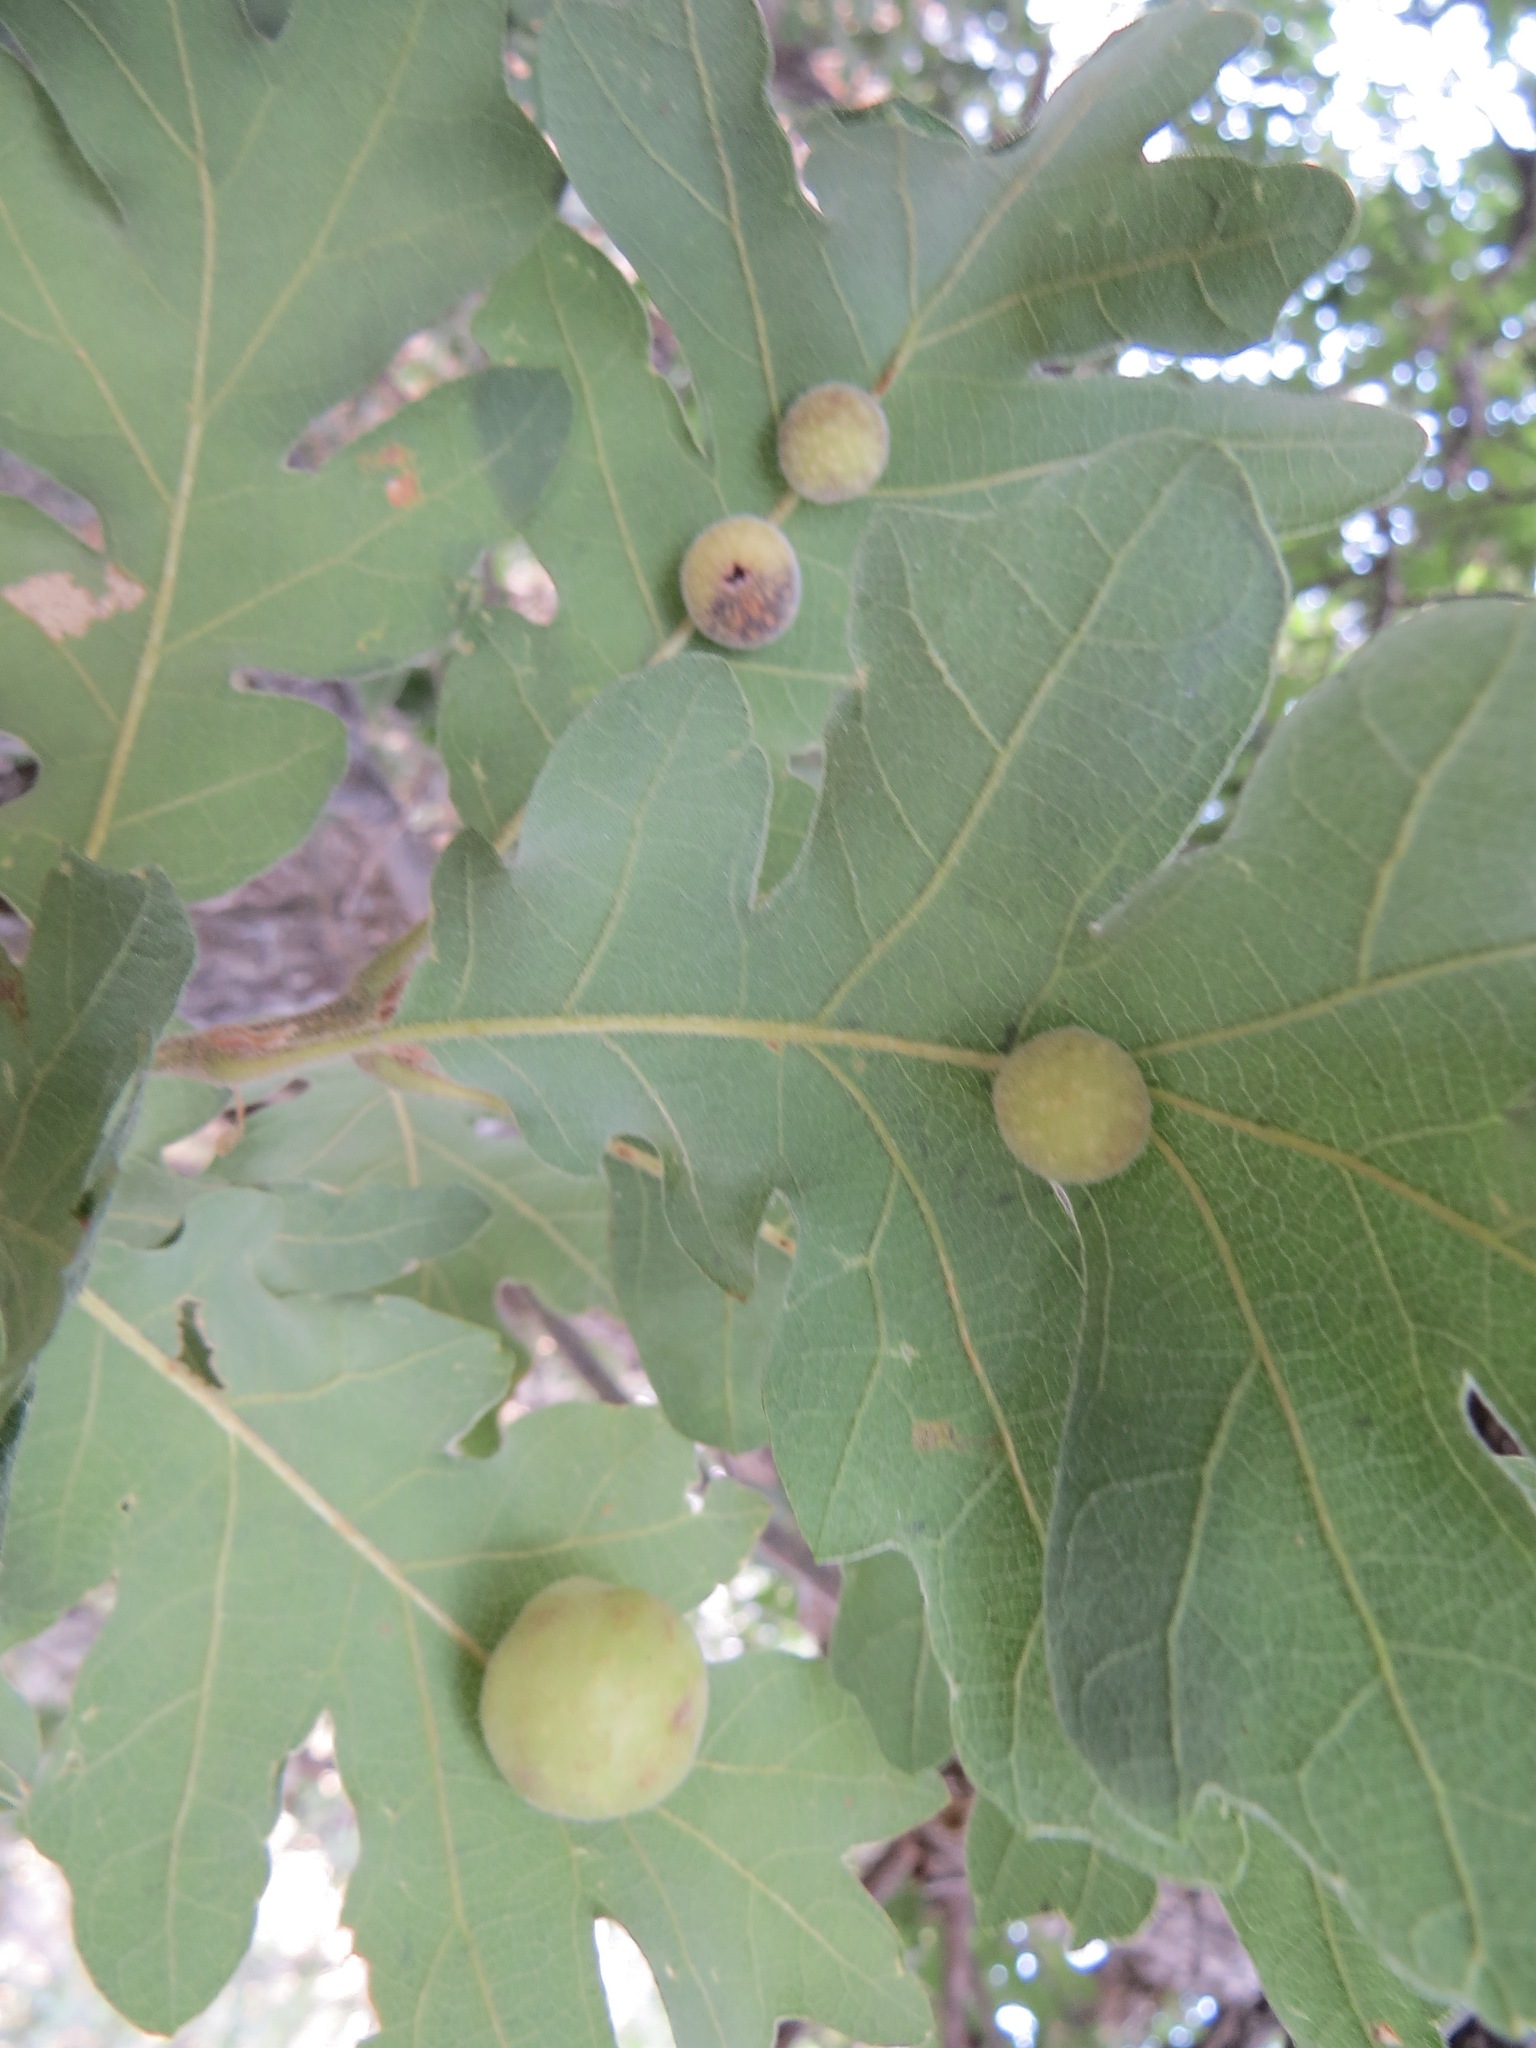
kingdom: Animalia
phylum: Arthropoda
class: Insecta
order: Hymenoptera
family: Cynipidae
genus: Cynips
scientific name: Cynips
